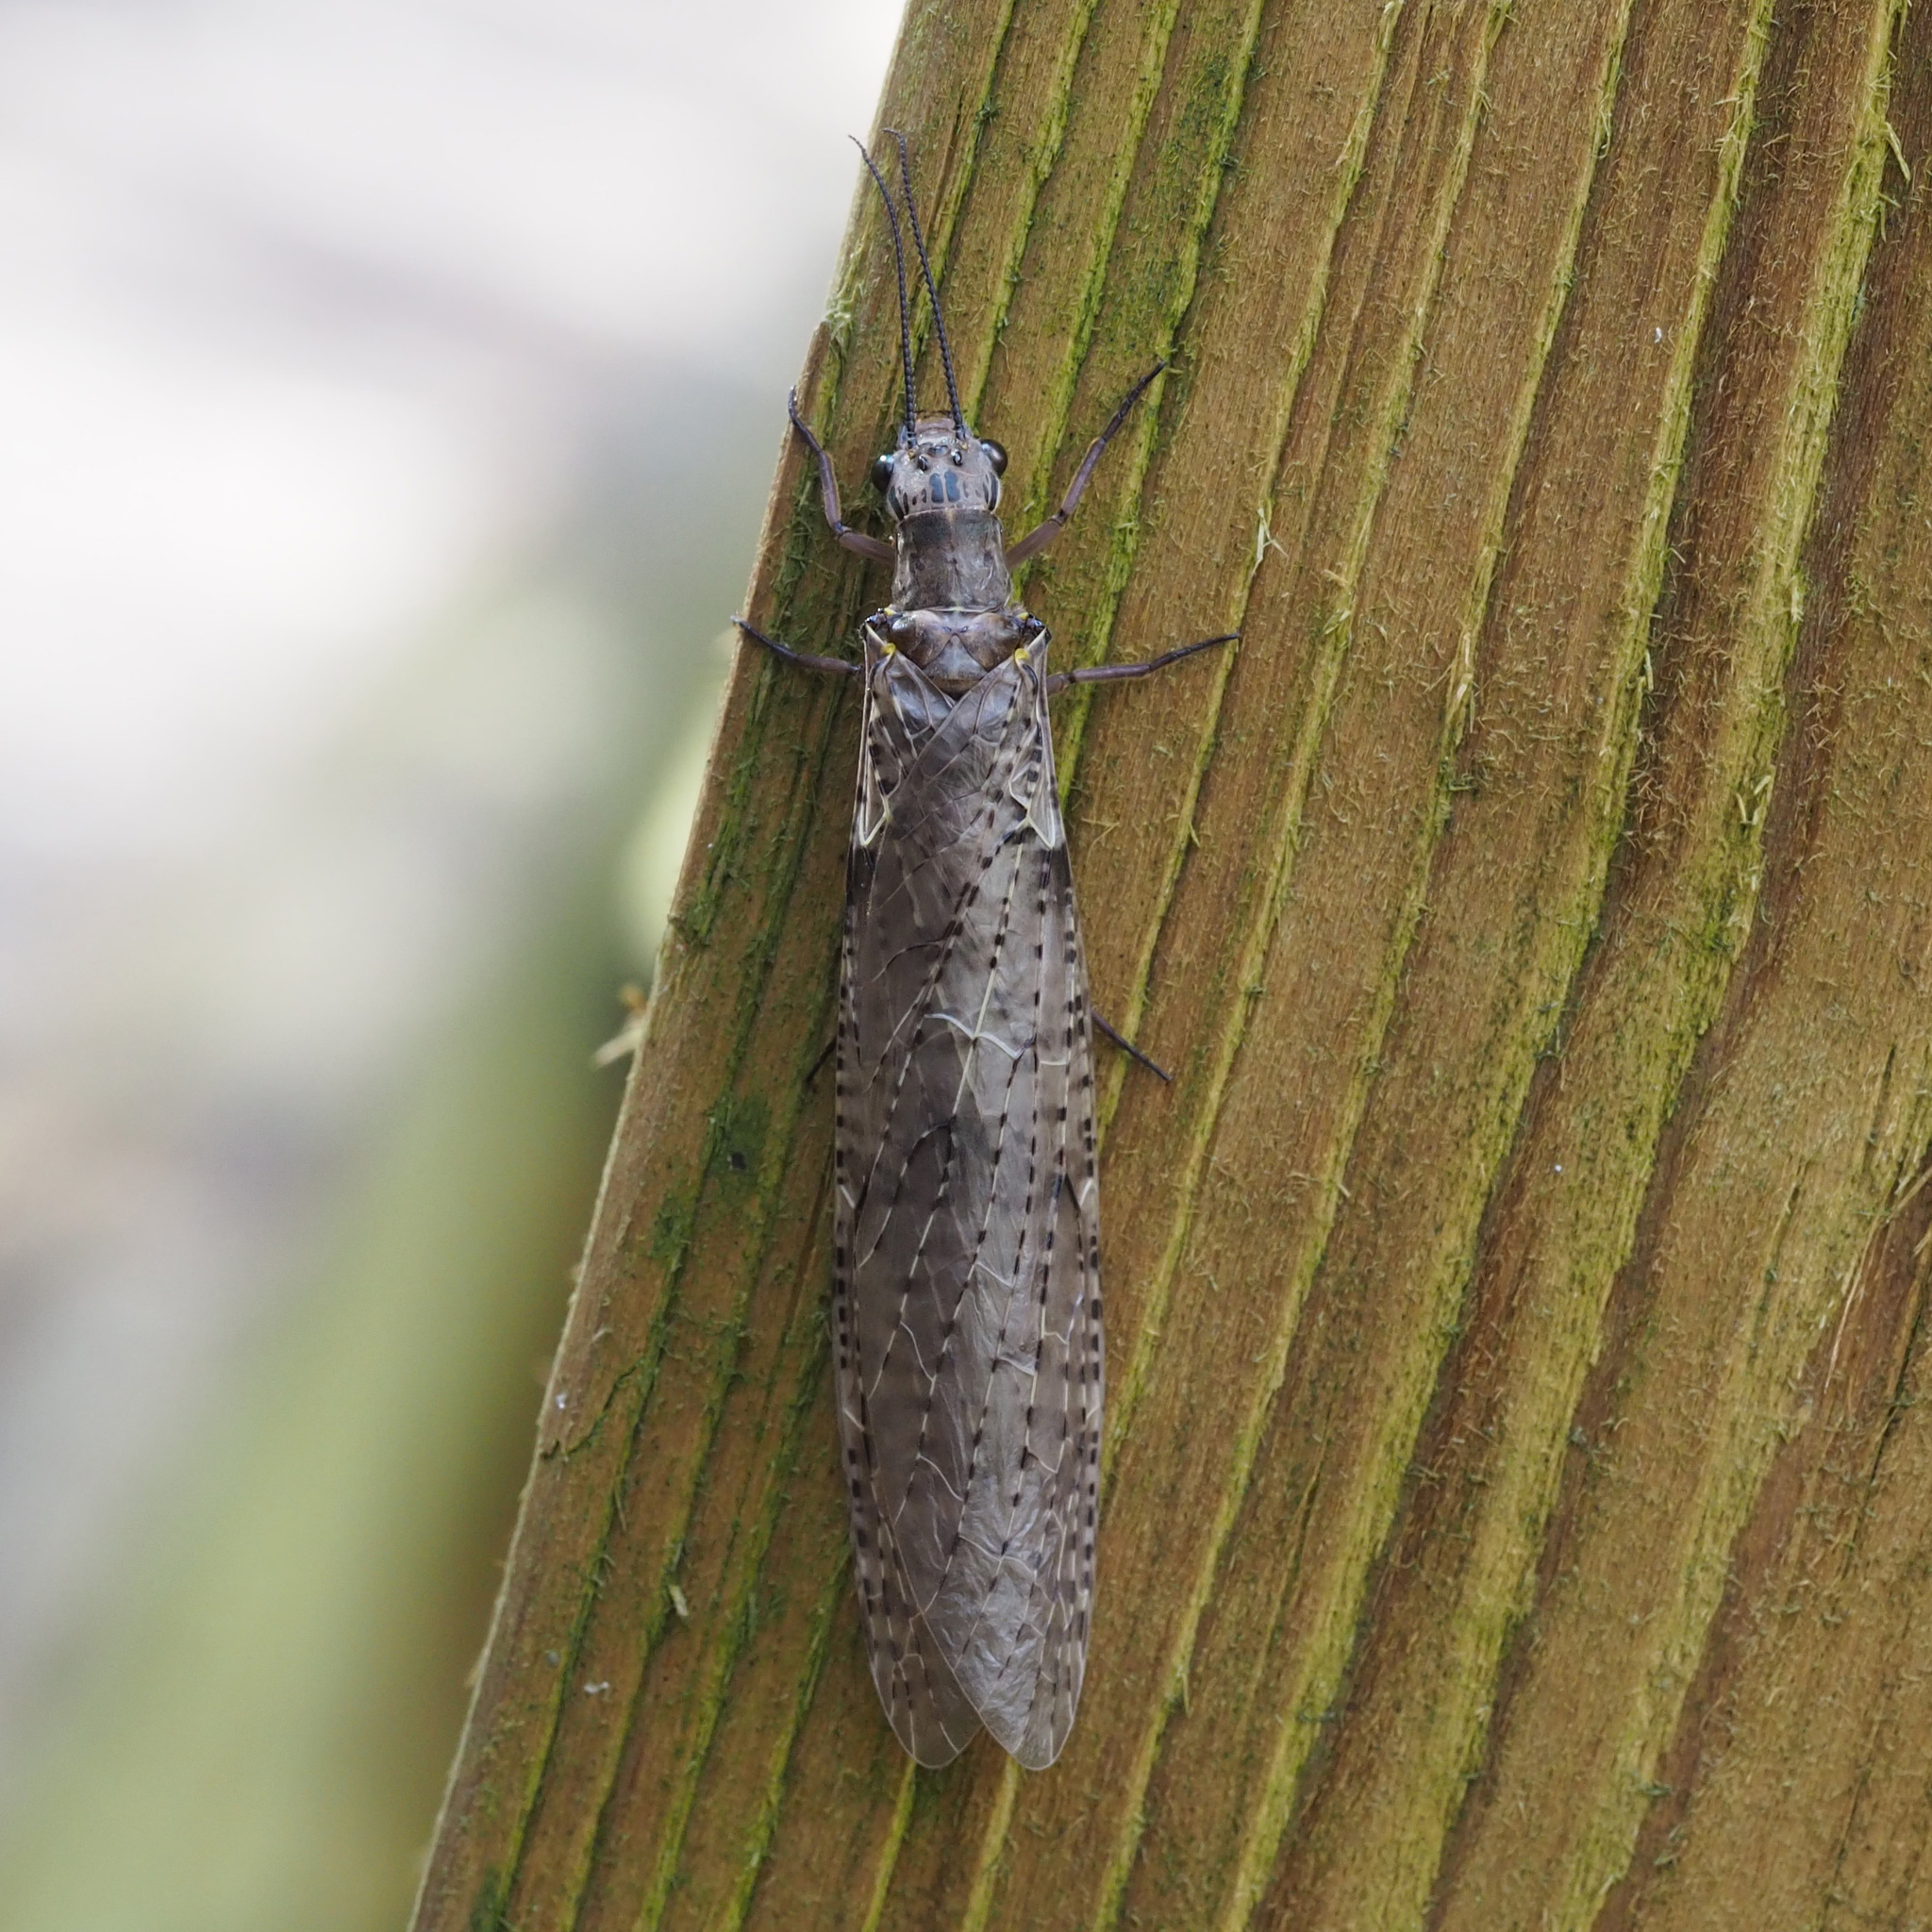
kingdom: Animalia
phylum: Arthropoda
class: Insecta
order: Megaloptera
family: Corydalidae
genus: Chauliodes
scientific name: Chauliodes rastricornis
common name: Spring fishfly
